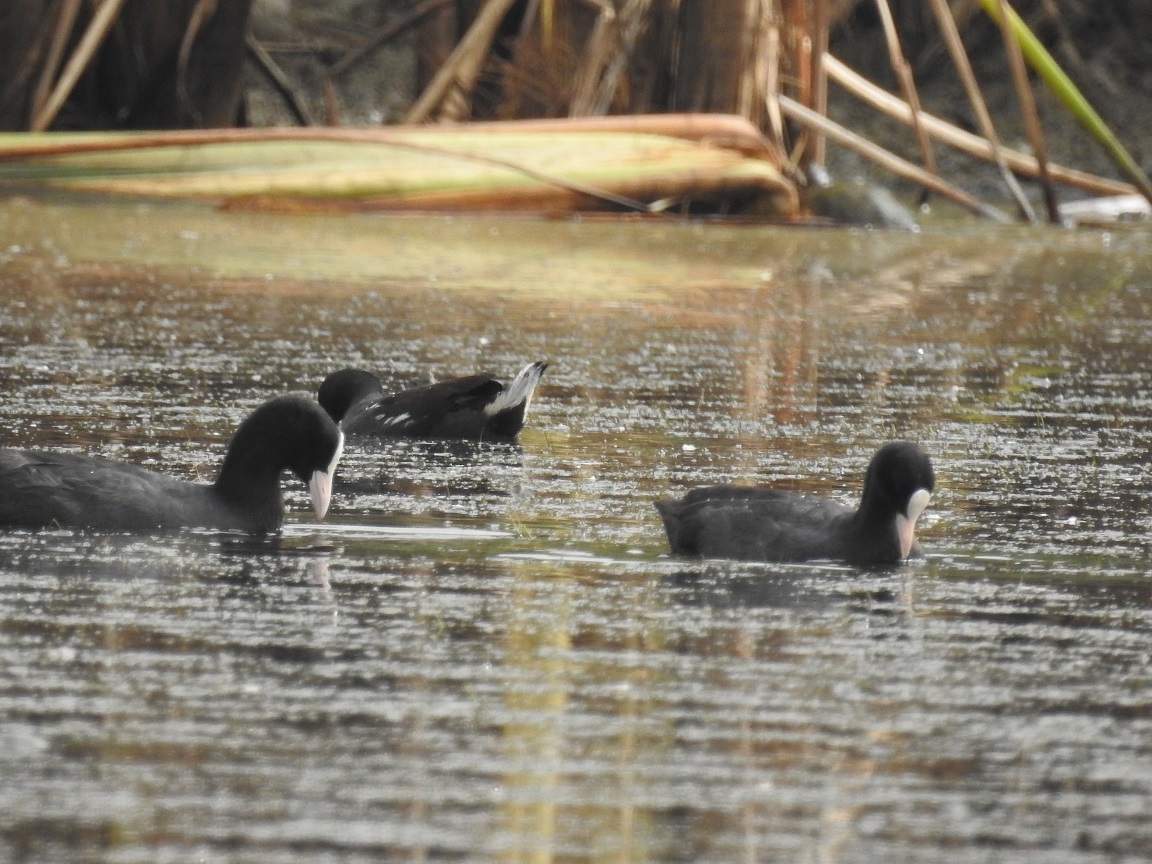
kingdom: Animalia
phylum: Chordata
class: Aves
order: Gruiformes
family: Rallidae
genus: Fulica
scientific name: Fulica atra
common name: Eurasian coot
